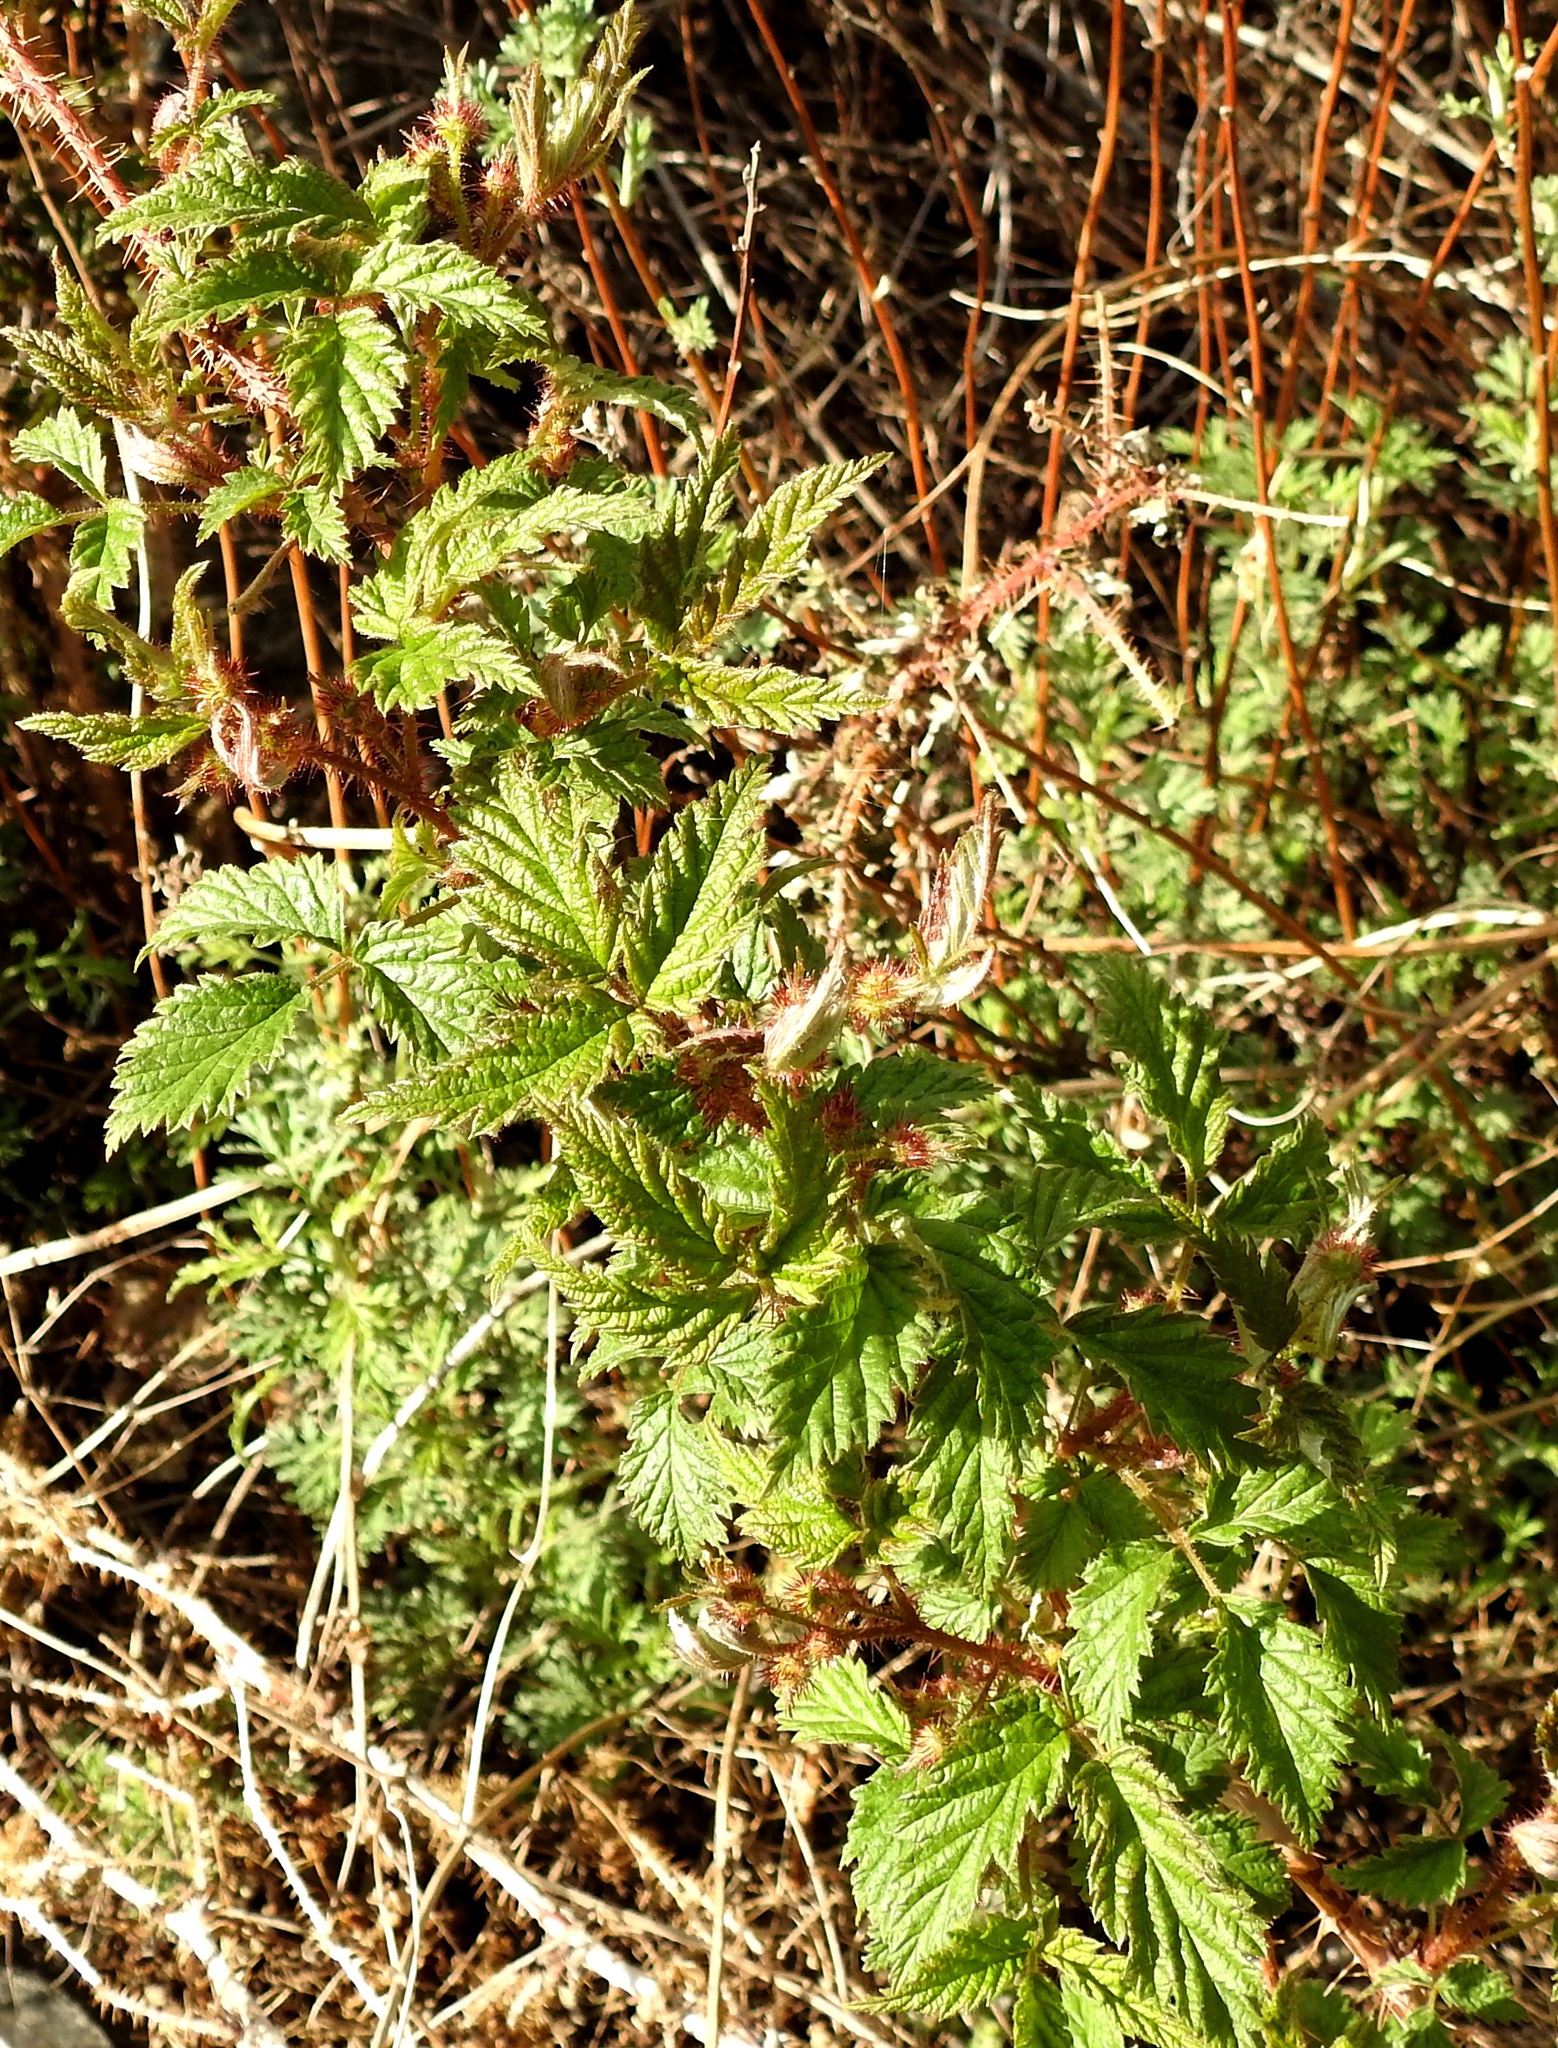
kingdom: Plantae
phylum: Tracheophyta
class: Magnoliopsida
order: Rosales
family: Rosaceae
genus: Rubus
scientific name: Rubus sachalinensis
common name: Red raspberry
